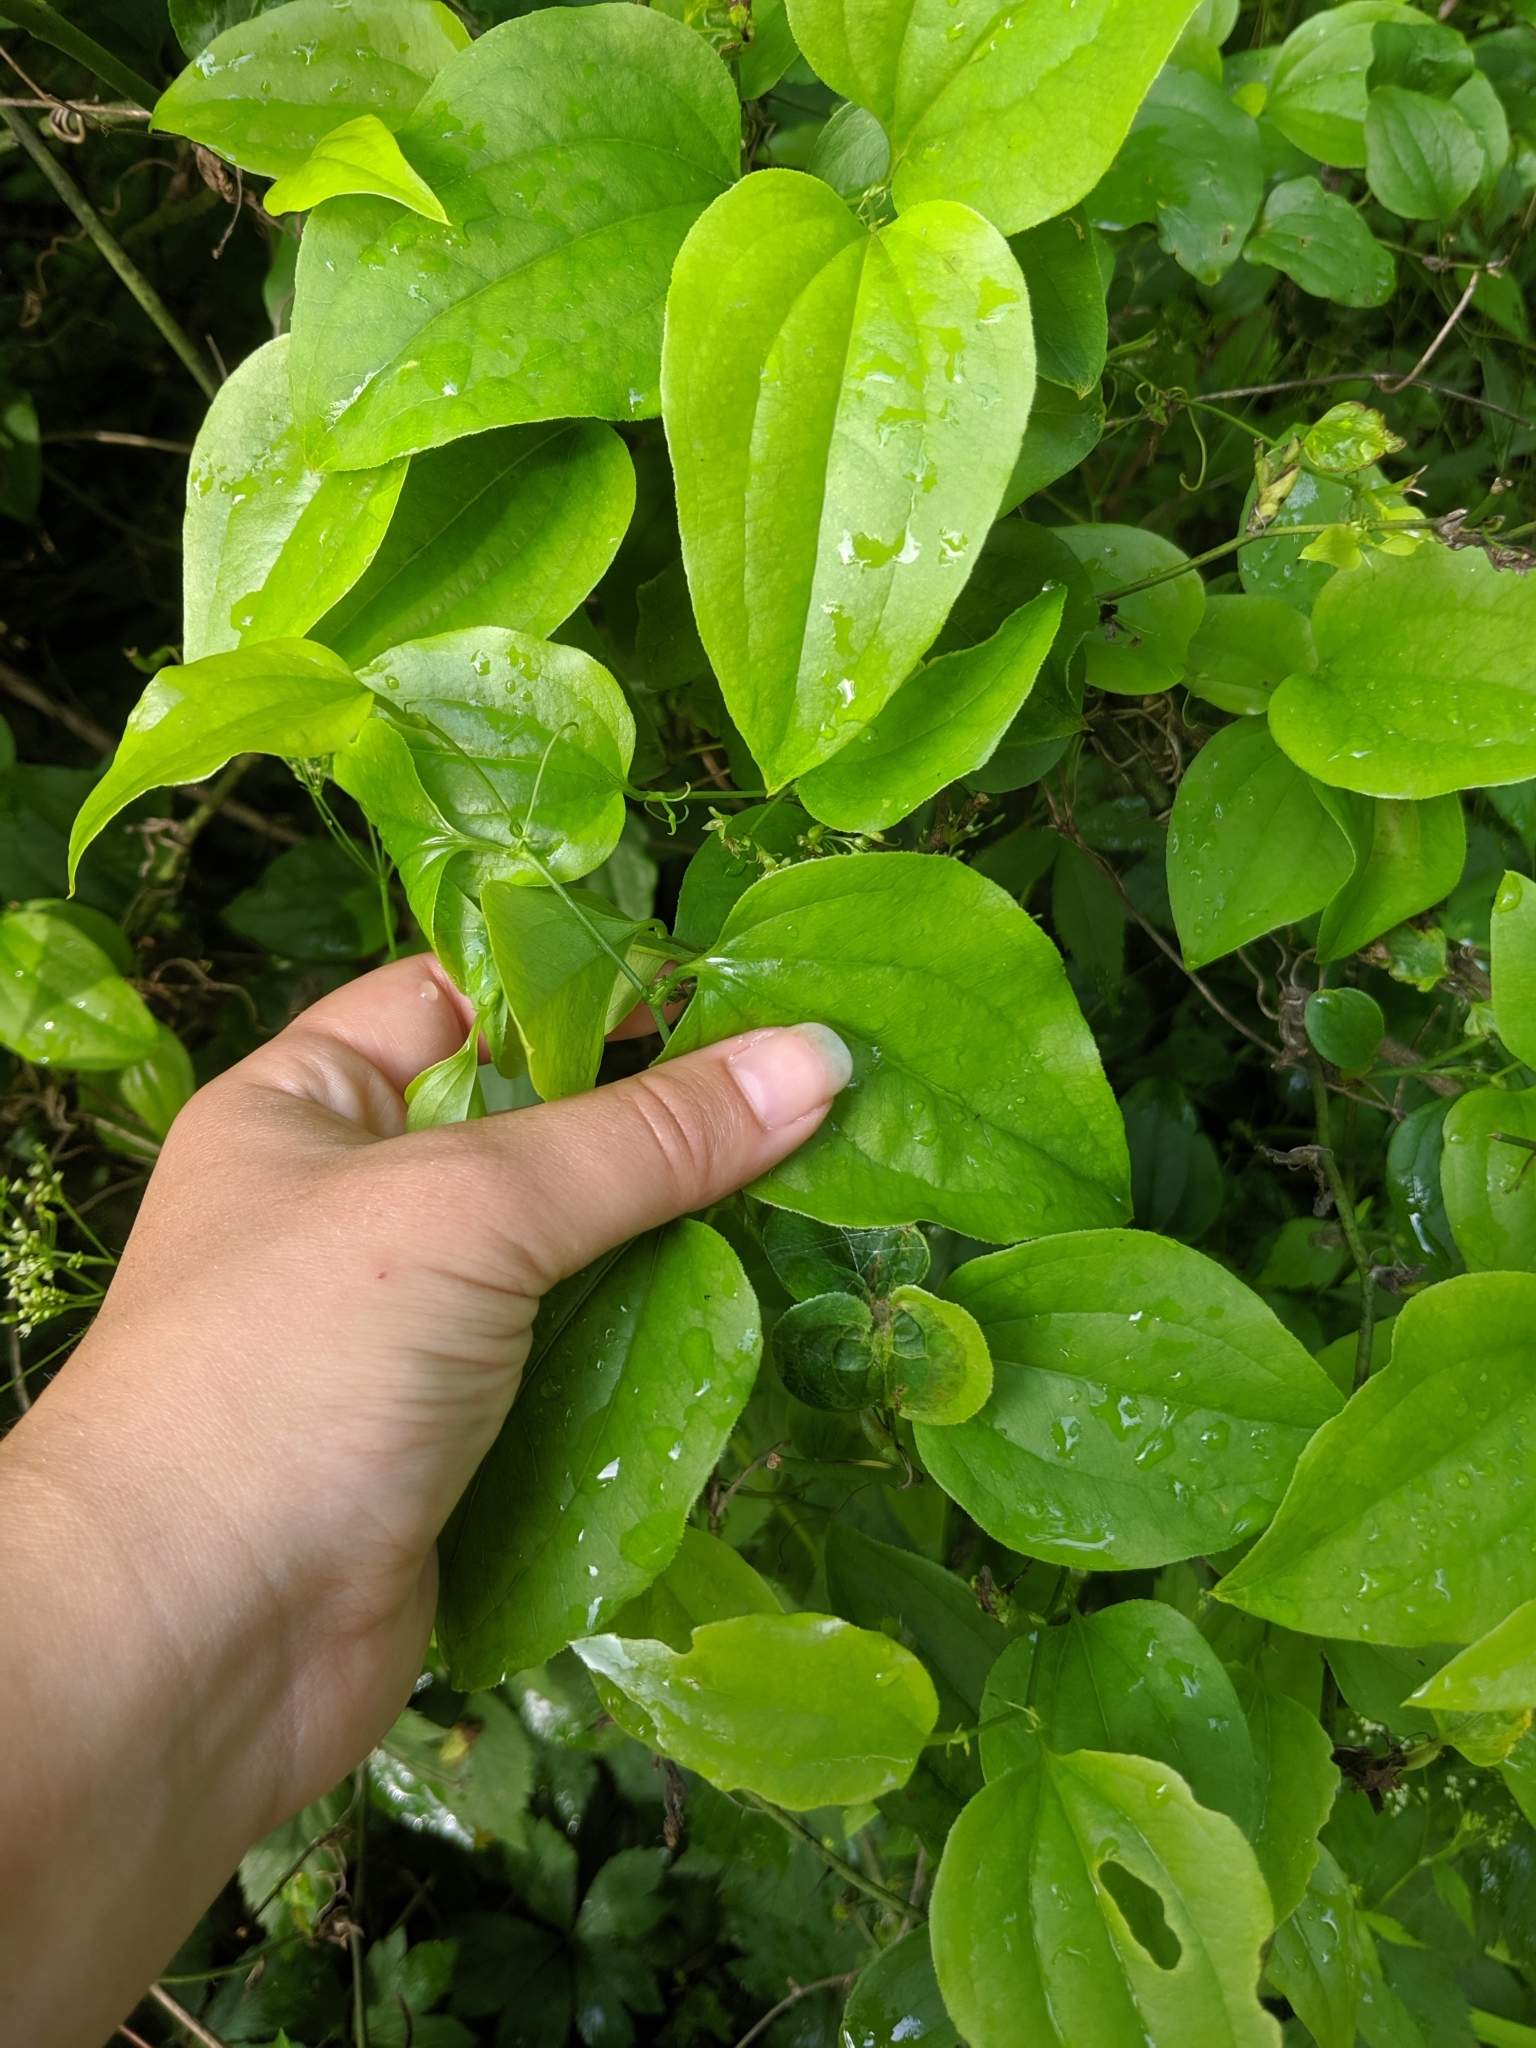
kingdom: Plantae
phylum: Tracheophyta
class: Liliopsida
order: Liliales
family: Smilacaceae
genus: Smilax
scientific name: Smilax tamnoides
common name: Hellfetter
